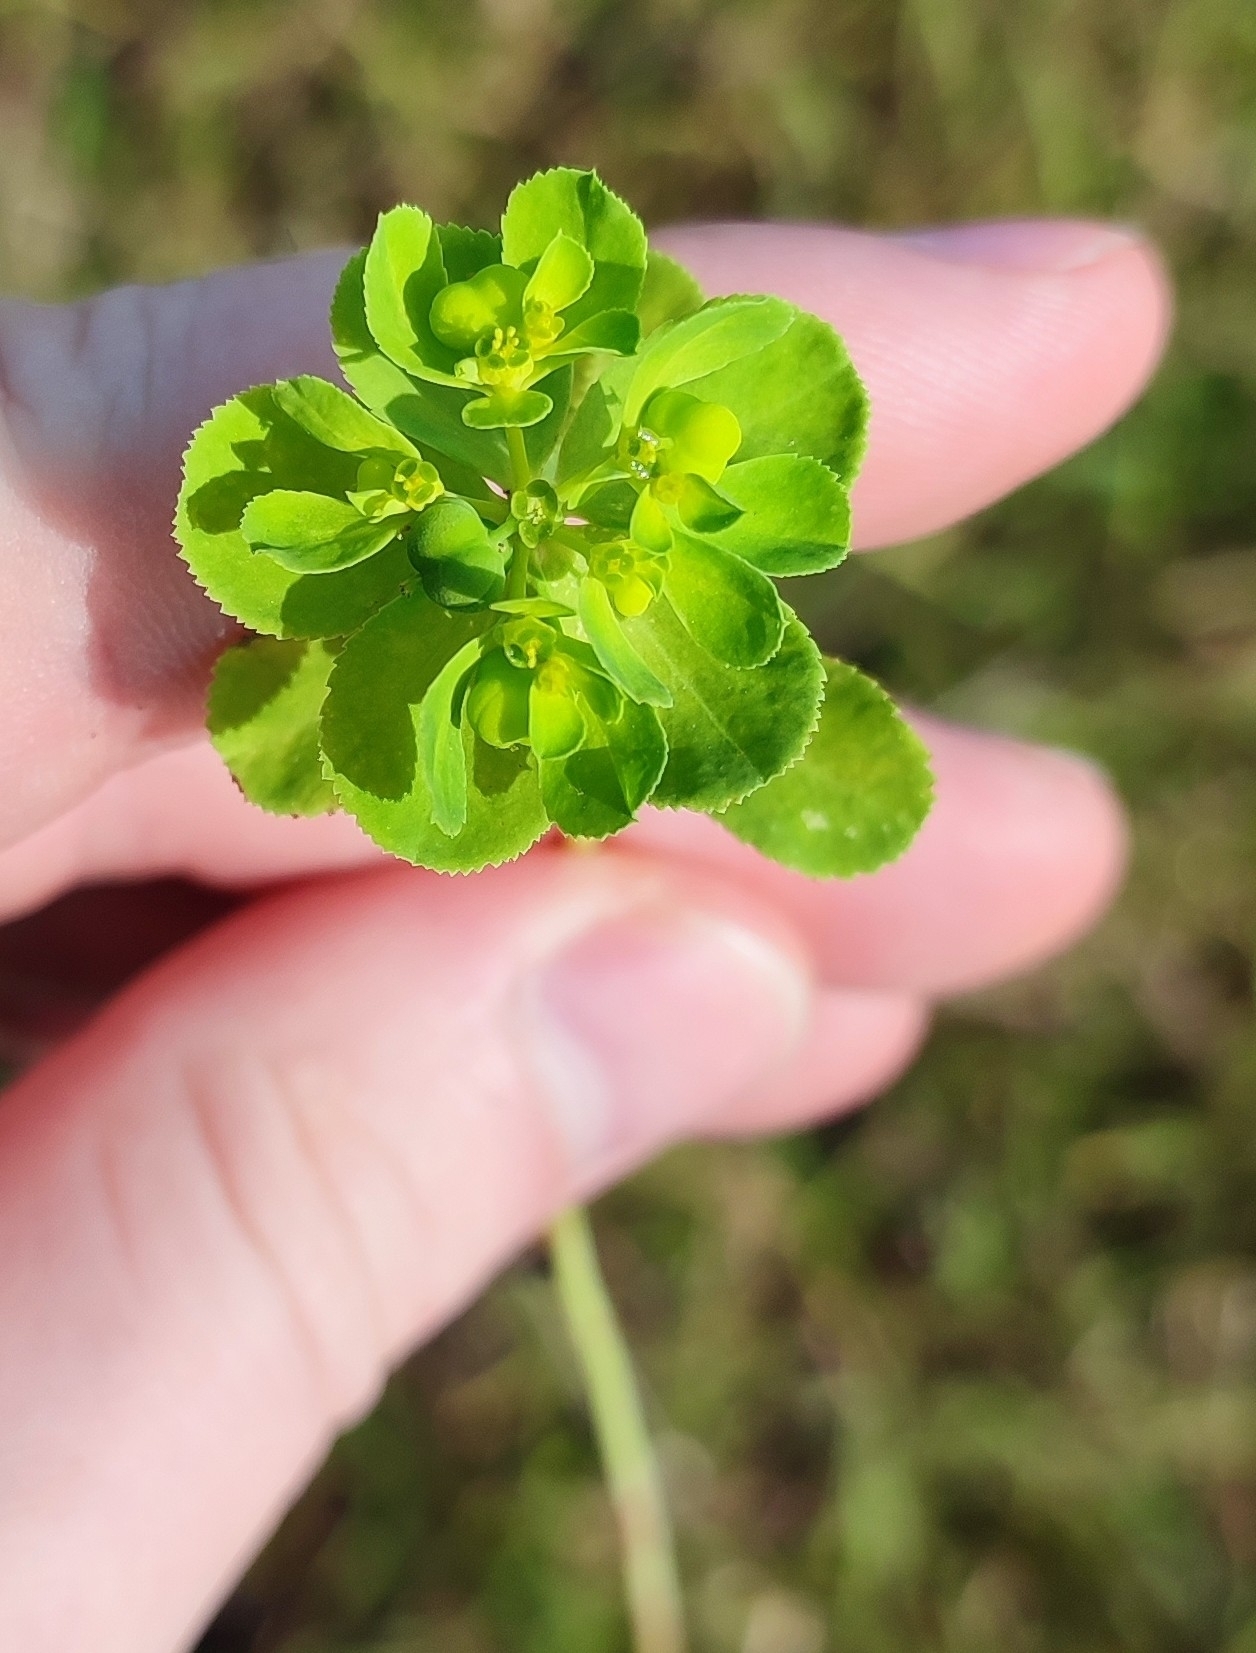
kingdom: Plantae
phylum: Tracheophyta
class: Magnoliopsida
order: Malpighiales
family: Euphorbiaceae
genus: Euphorbia
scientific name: Euphorbia helioscopia
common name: Sun spurge
